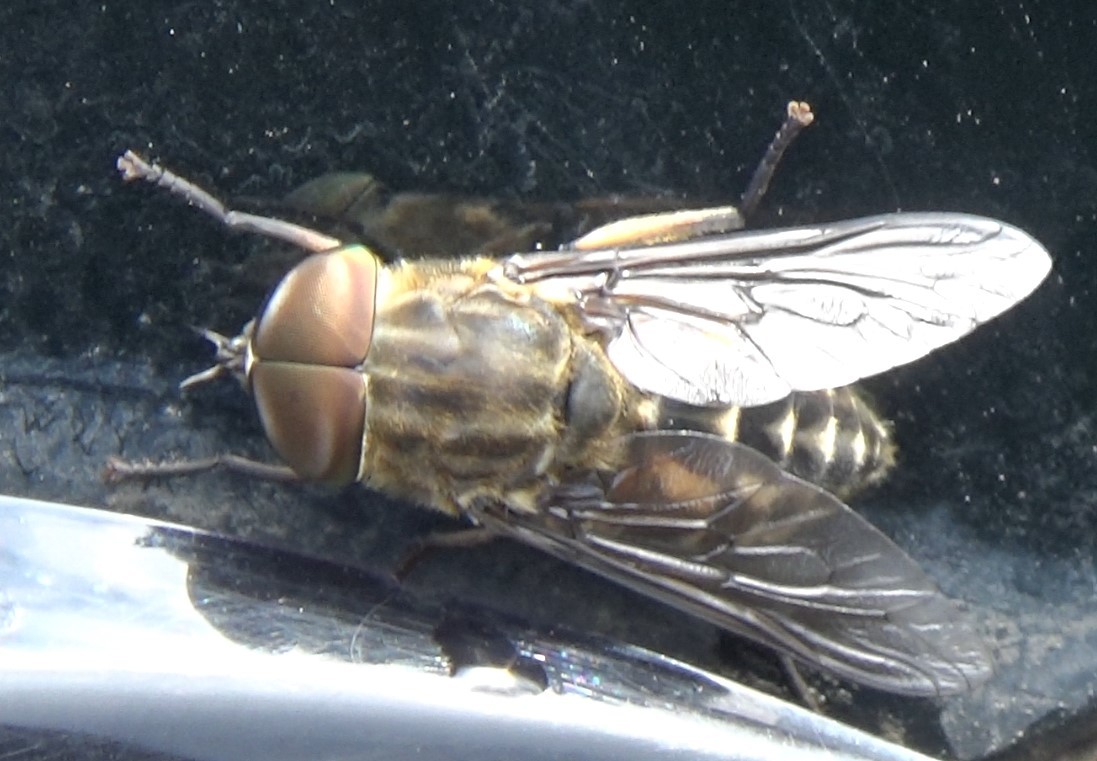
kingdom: Animalia
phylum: Arthropoda
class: Insecta
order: Diptera
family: Tabanidae
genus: Tabanus
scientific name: Tabanus autumnalis
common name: Large marsh horsefly
